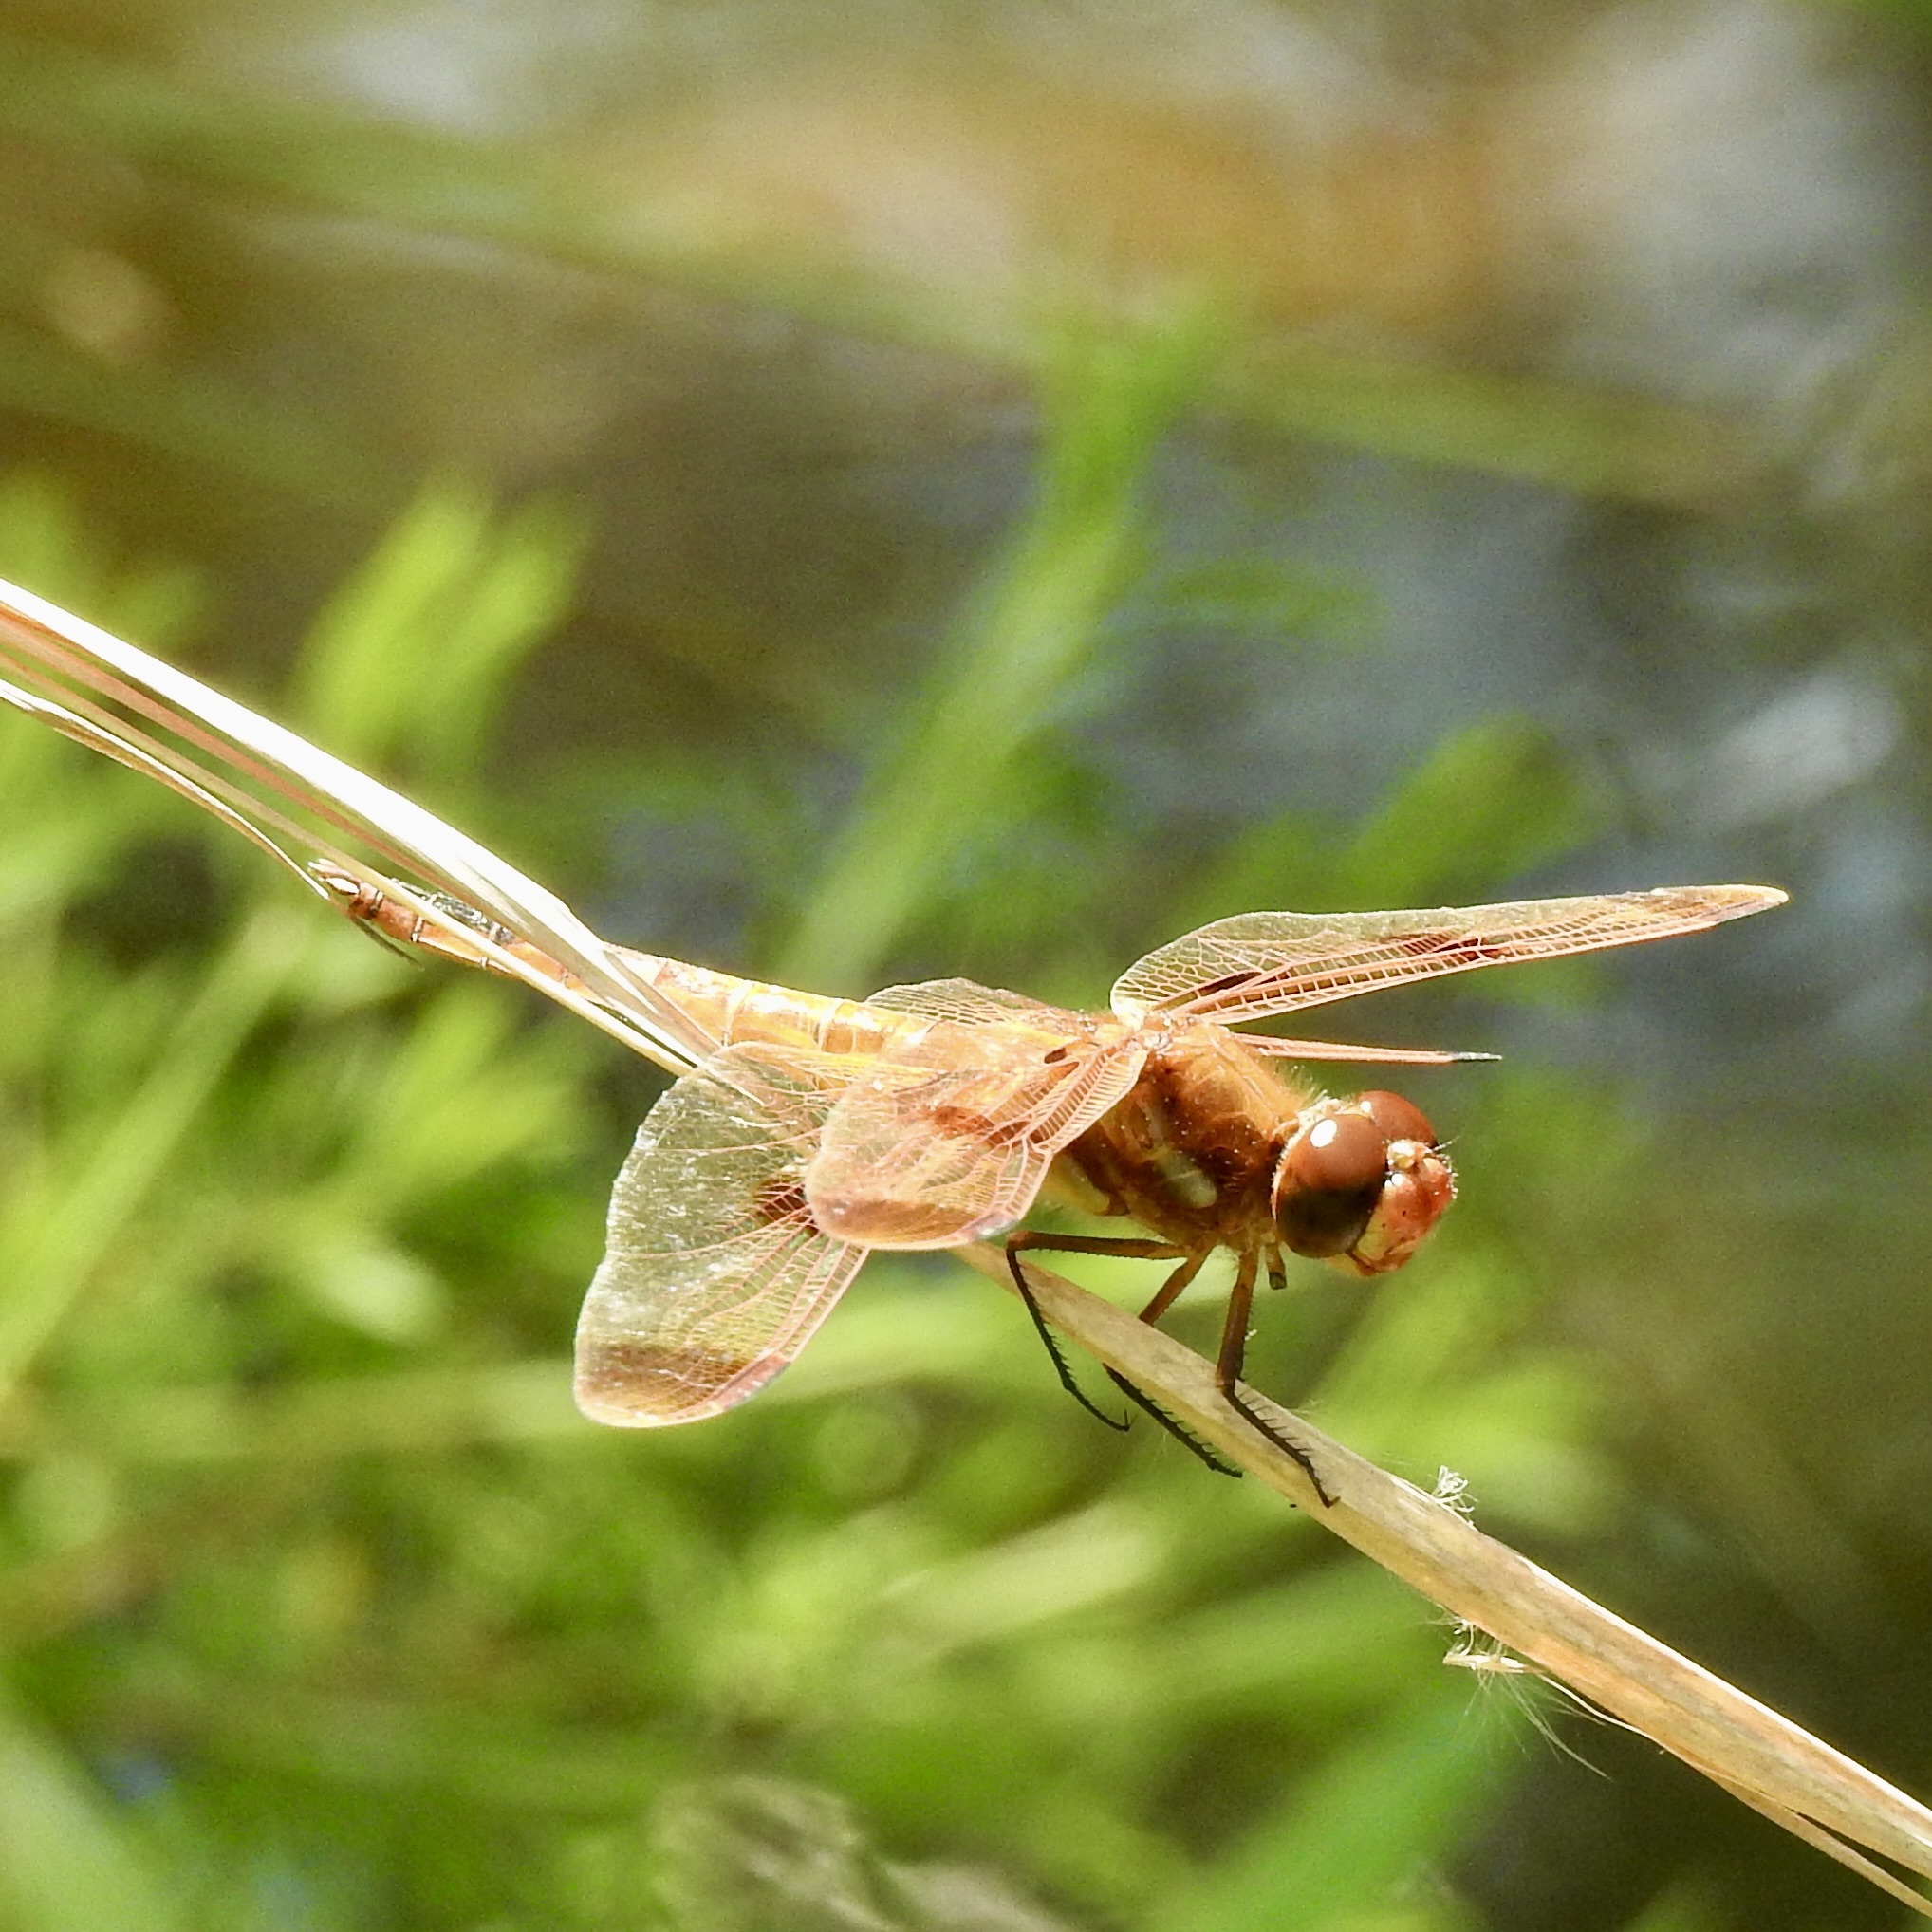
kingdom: Animalia
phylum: Arthropoda
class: Insecta
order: Odonata
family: Libellulidae
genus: Libellula
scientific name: Libellula semifasciata
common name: Painted skimmer
